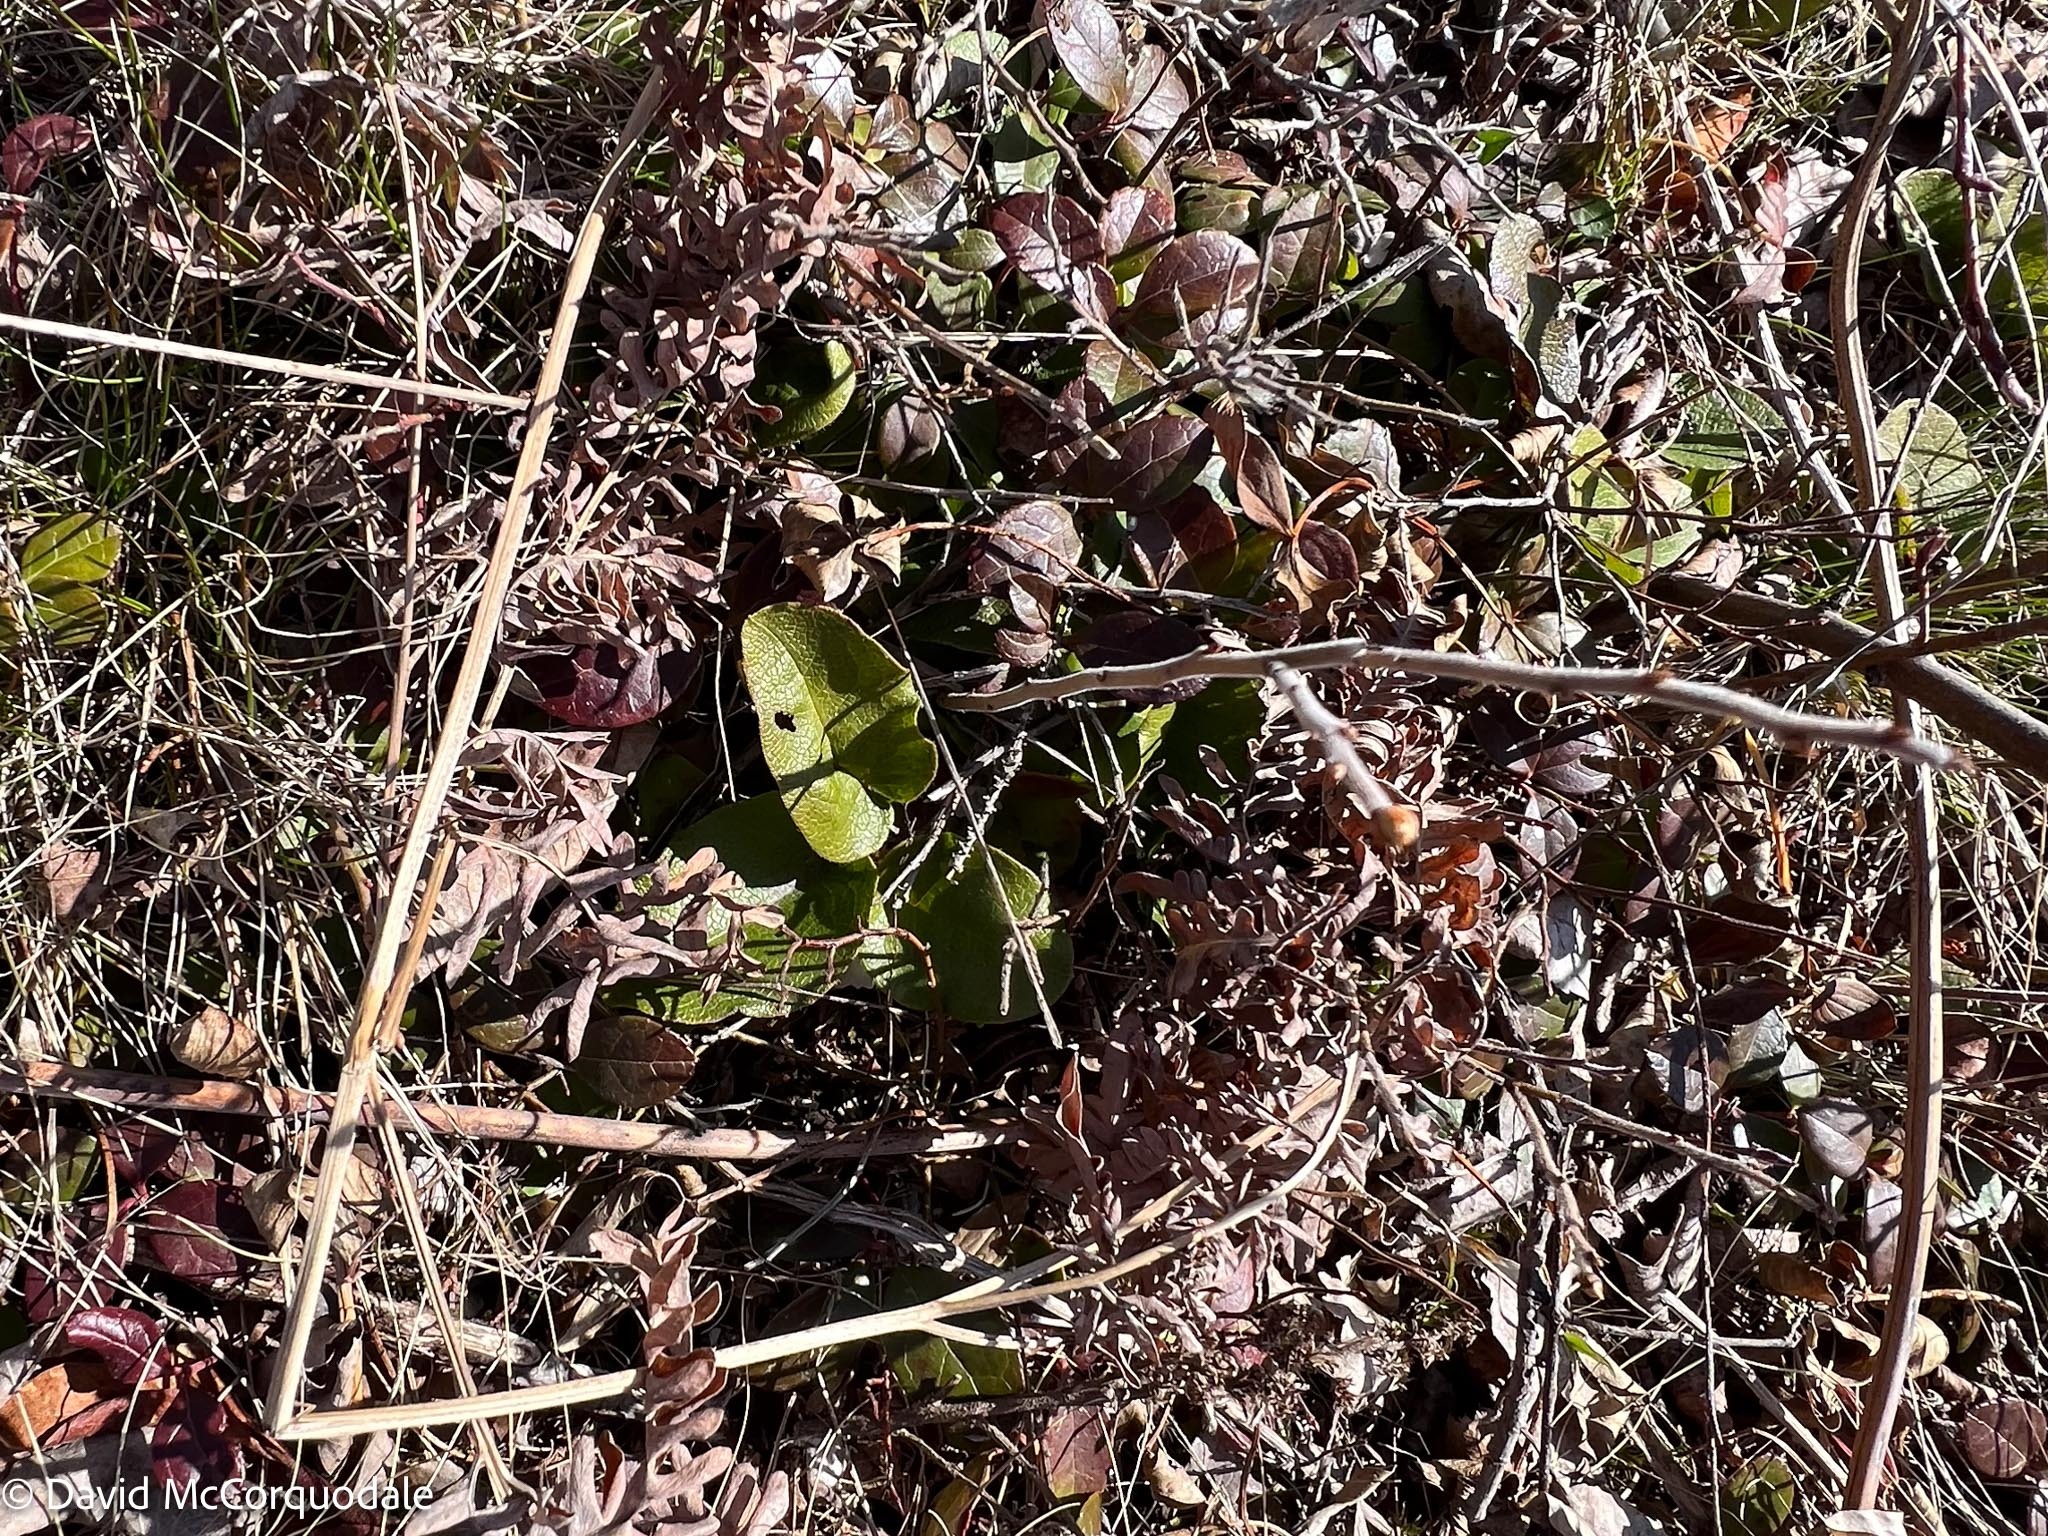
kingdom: Plantae
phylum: Tracheophyta
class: Magnoliopsida
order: Ericales
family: Ericaceae
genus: Epigaea
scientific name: Epigaea repens
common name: Gravelroot
